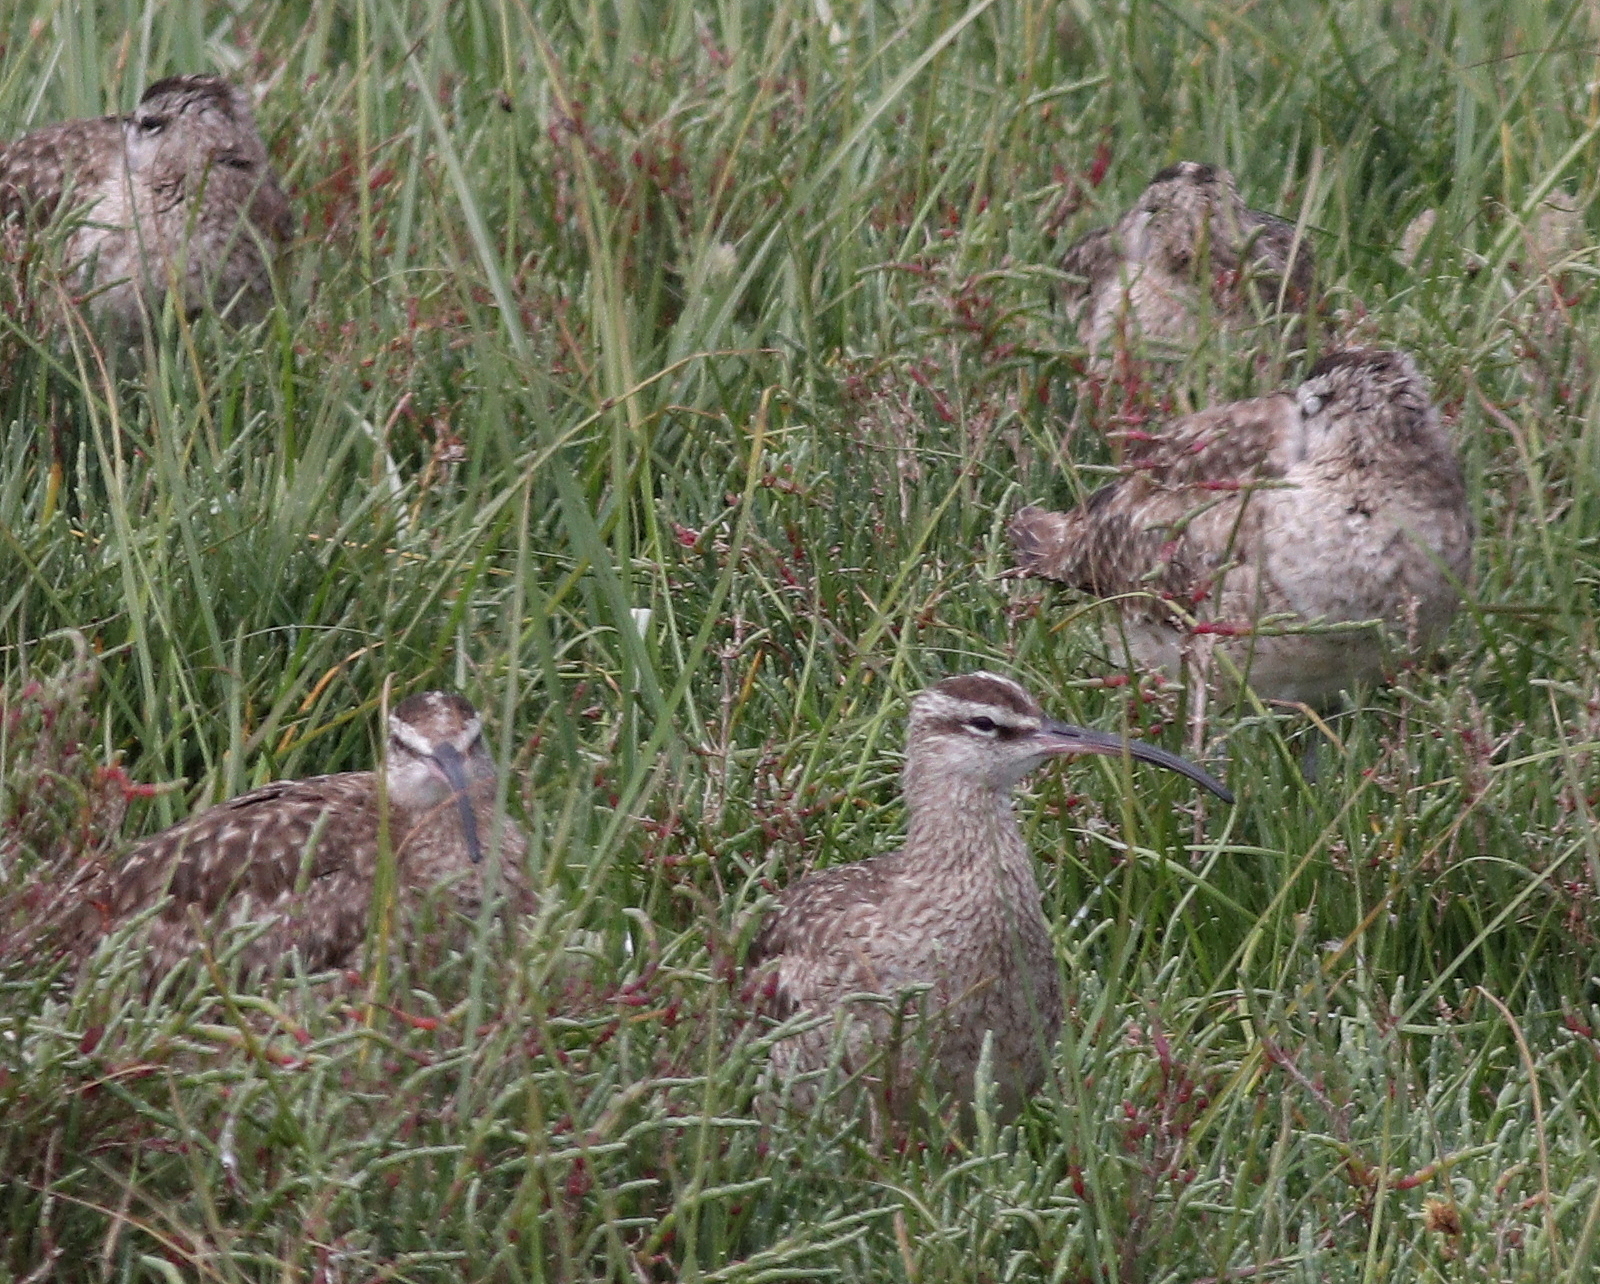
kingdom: Animalia
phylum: Chordata
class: Aves
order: Charadriiformes
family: Scolopacidae
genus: Numenius
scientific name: Numenius phaeopus
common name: Whimbrel
